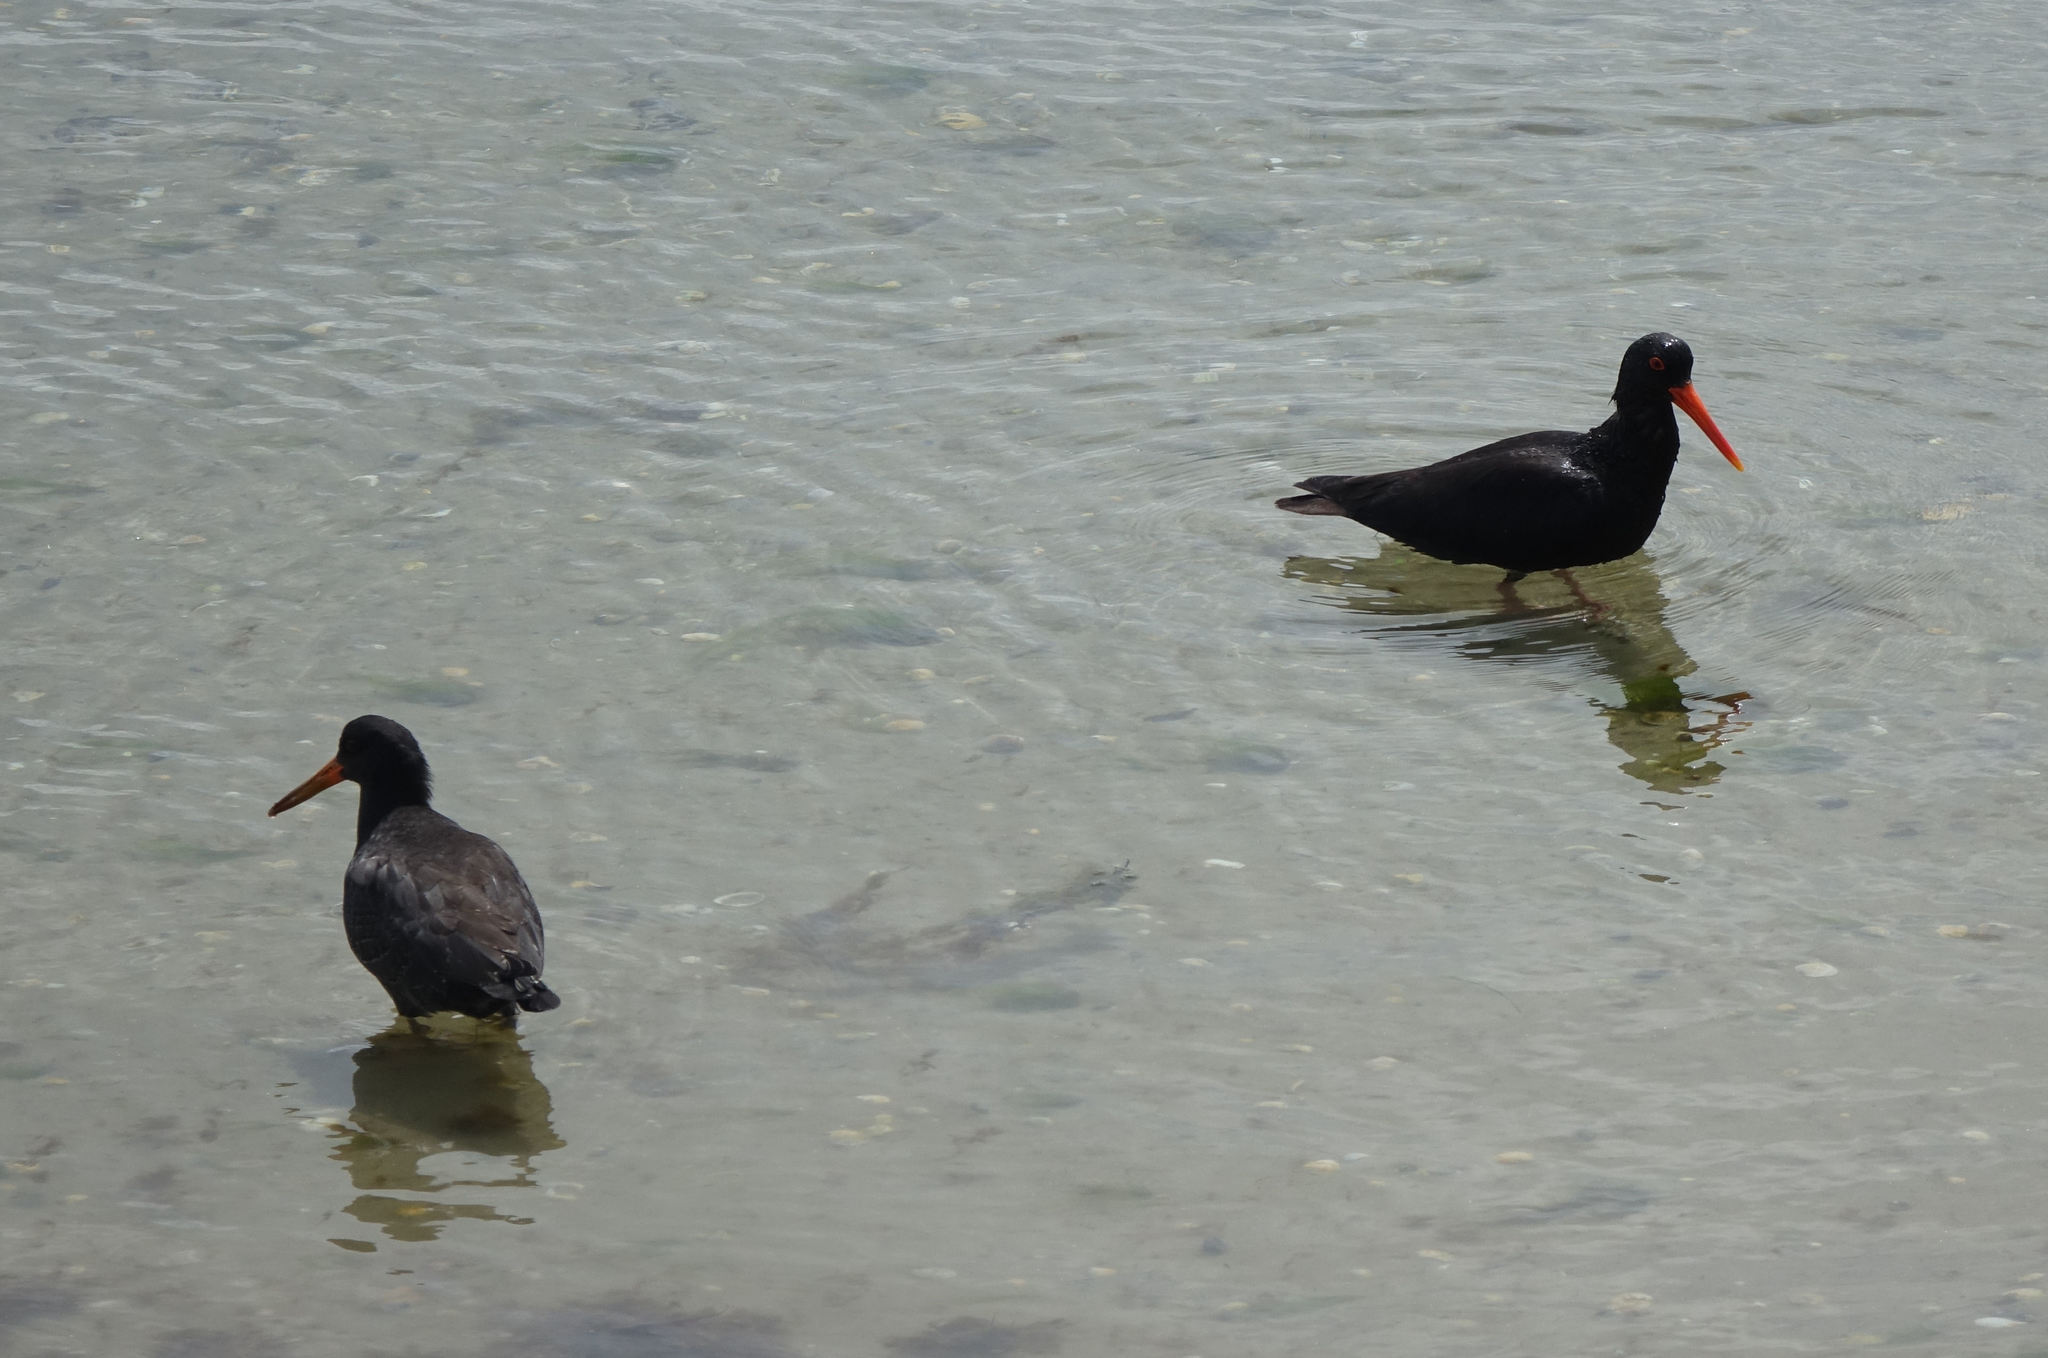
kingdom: Animalia
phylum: Chordata
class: Aves
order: Charadriiformes
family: Haematopodidae
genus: Haematopus
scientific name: Haematopus unicolor
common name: Variable oystercatcher
